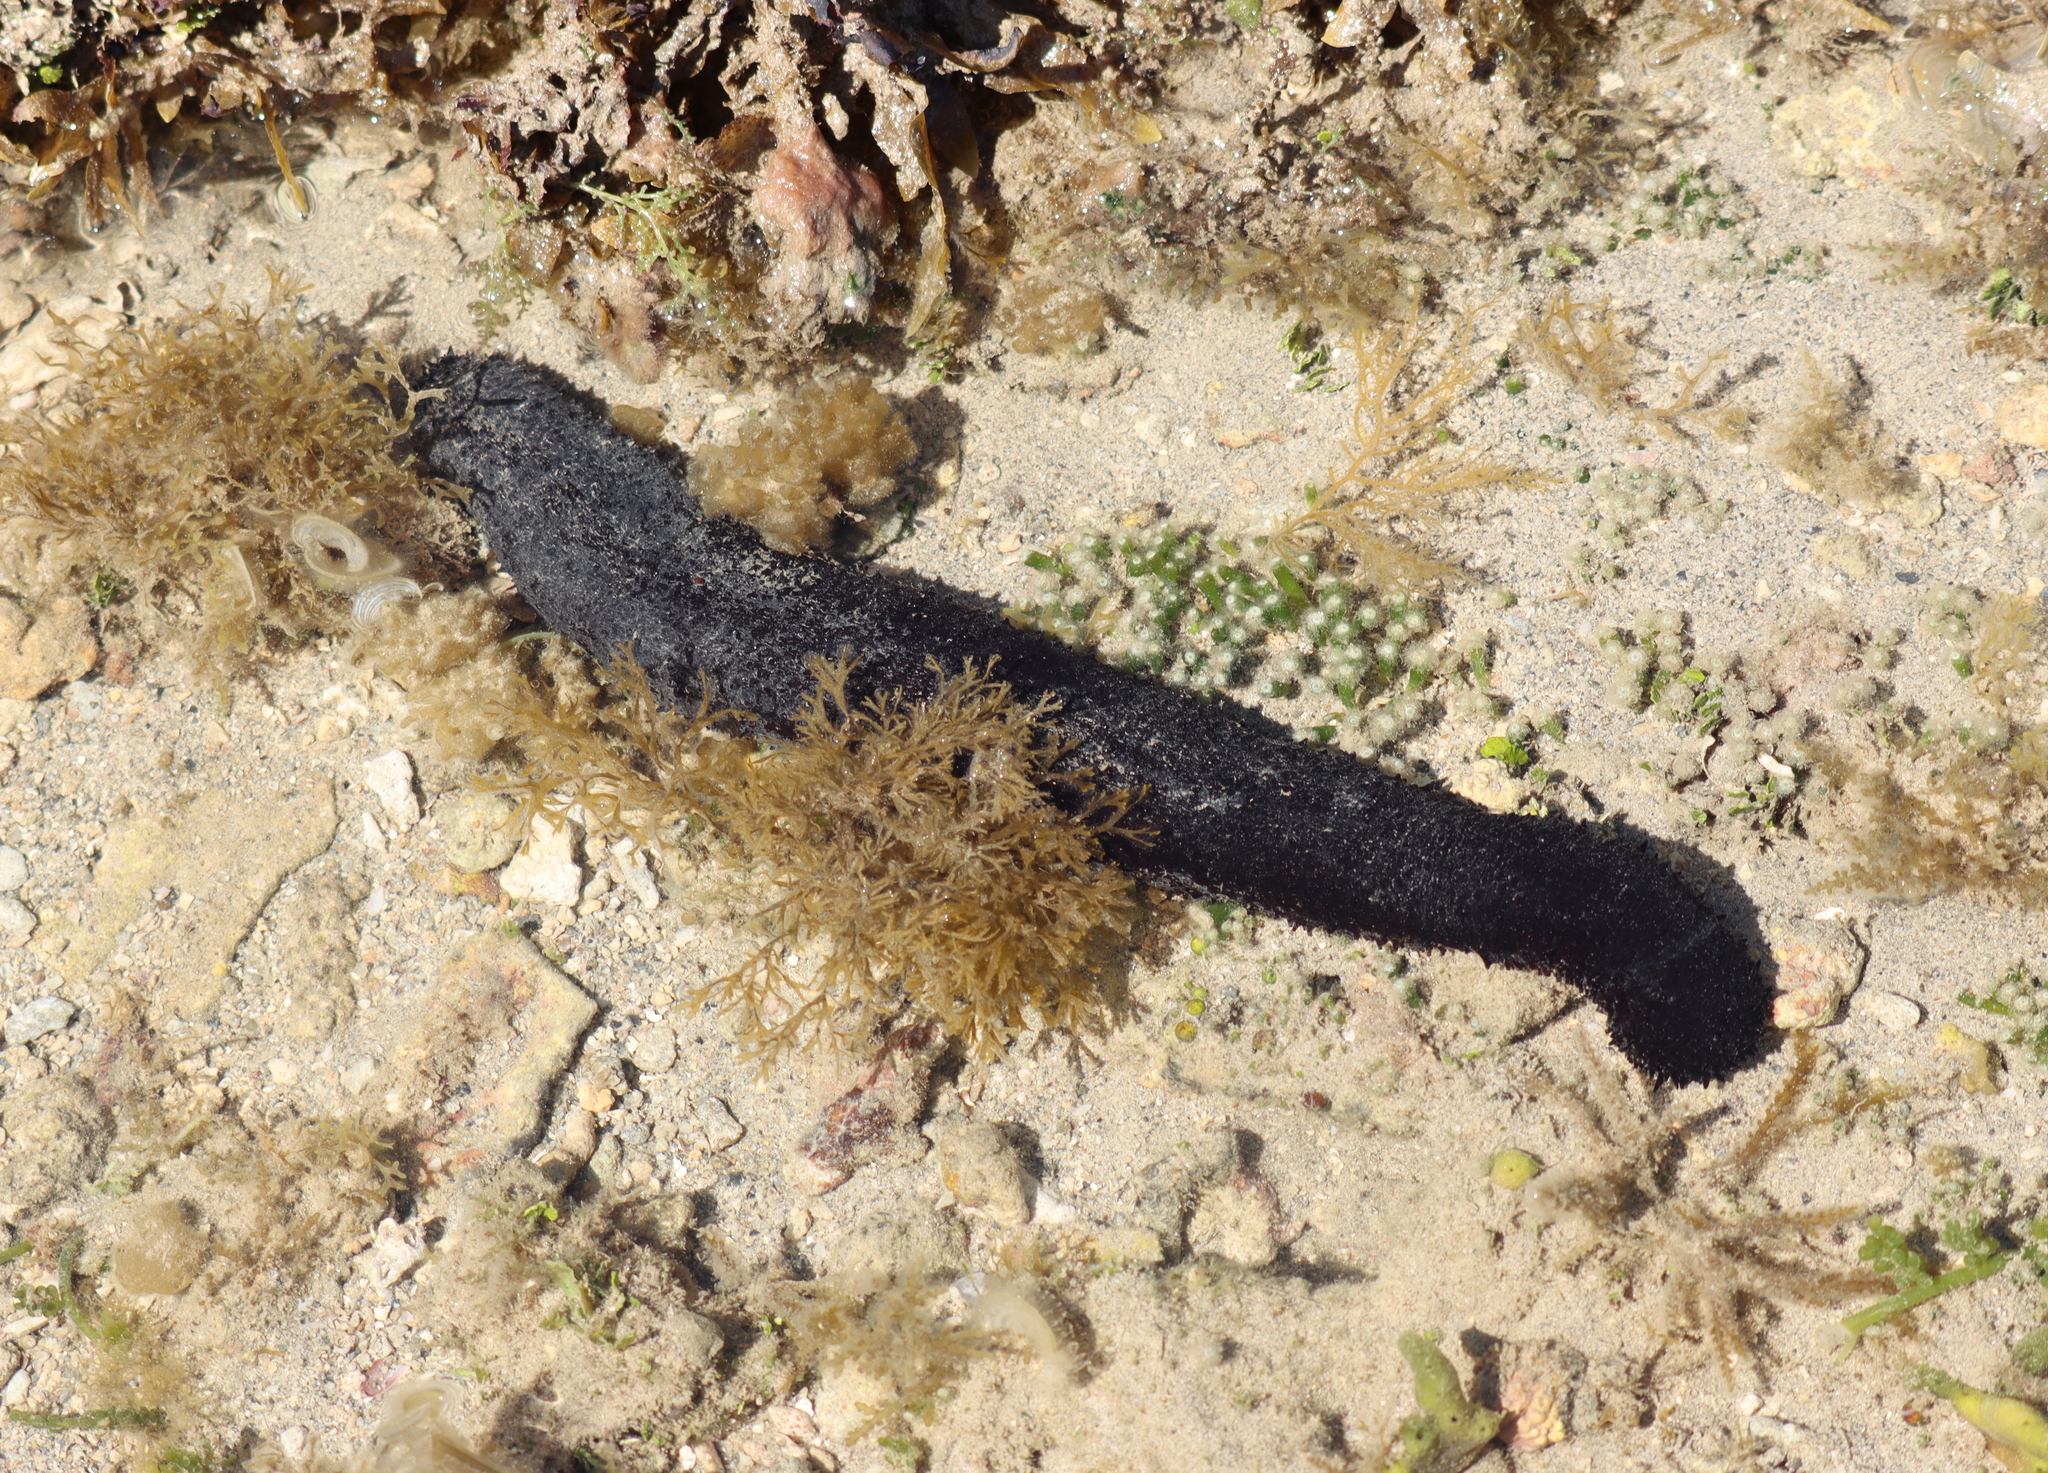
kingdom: Animalia
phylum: Echinodermata
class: Holothuroidea
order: Holothuriida
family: Holothuriidae
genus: Holothuria
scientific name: Holothuria leucospilota
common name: White thread fish
